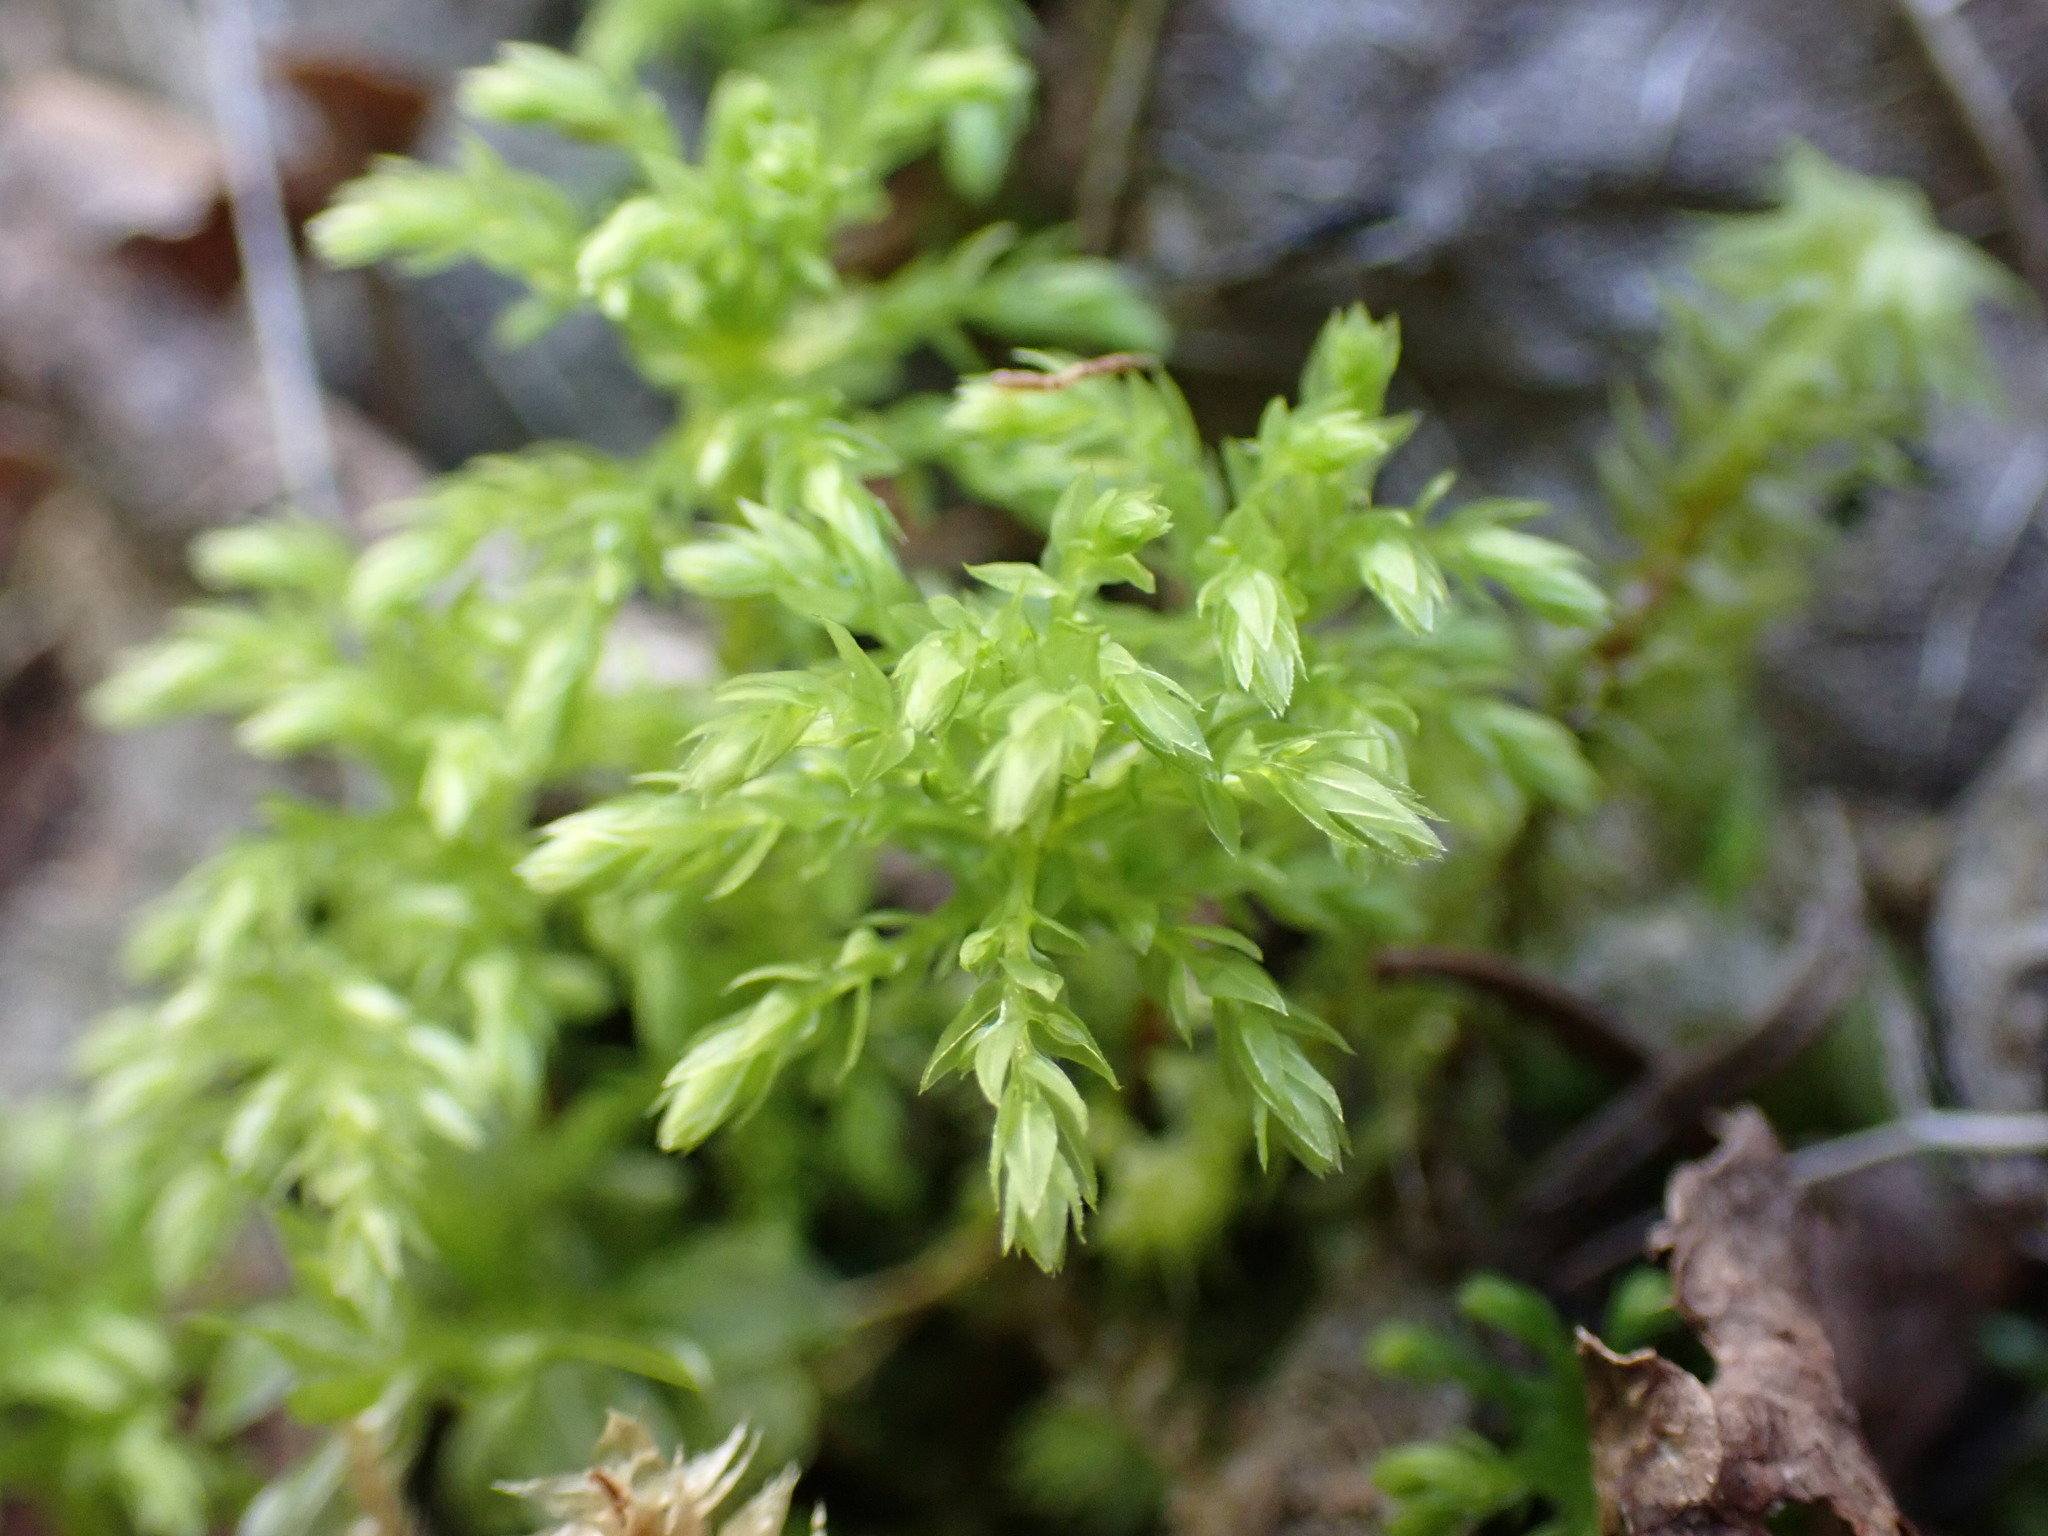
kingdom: Plantae
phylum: Bryophyta
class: Bryopsida
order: Bryales
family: Mniaceae
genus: Leucolepis
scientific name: Leucolepis acanthoneura
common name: Leucolepis umbrella moss
